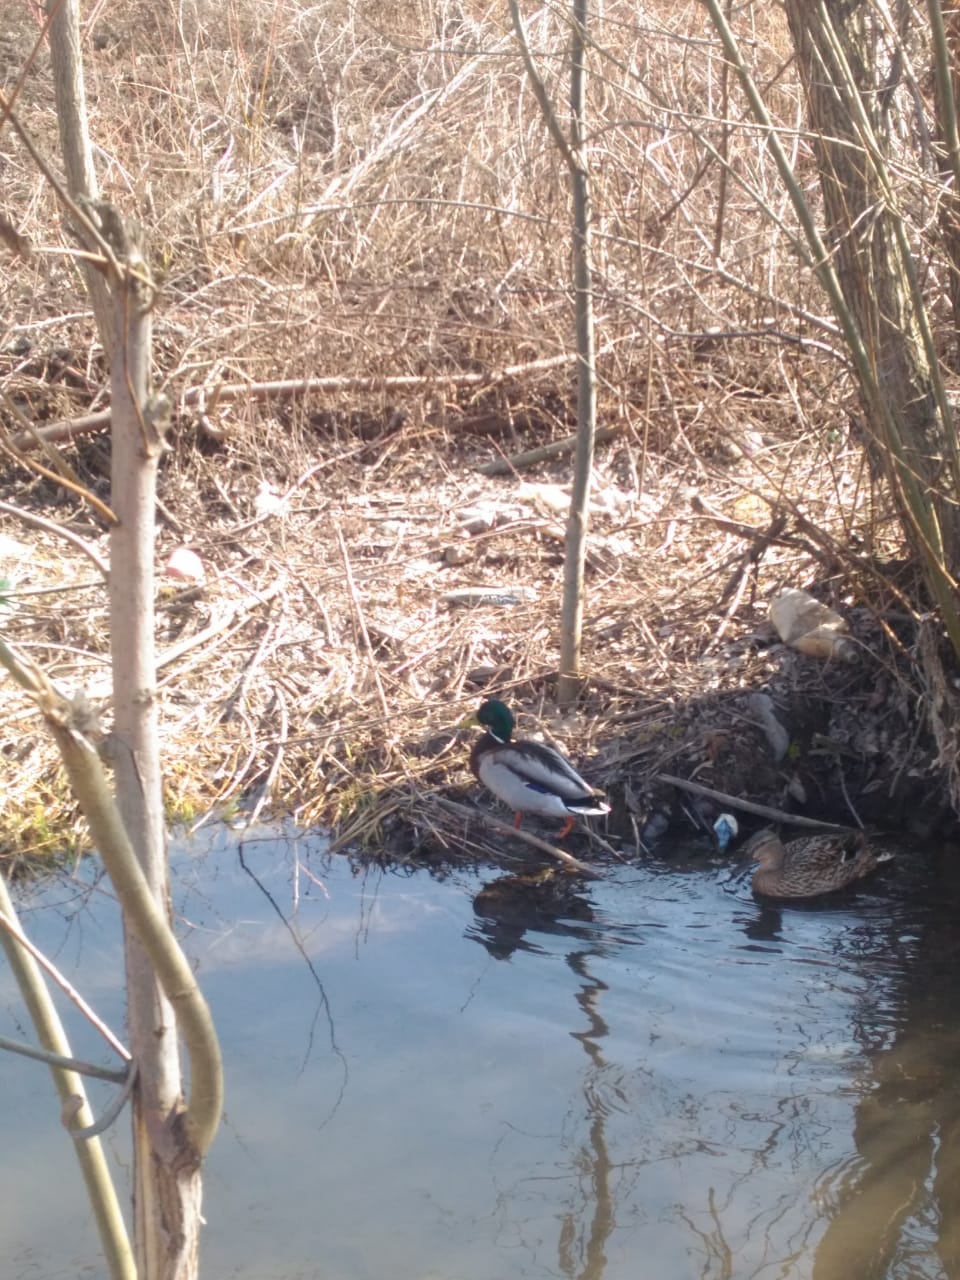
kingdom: Animalia
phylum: Chordata
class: Aves
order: Anseriformes
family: Anatidae
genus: Anas
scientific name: Anas platyrhynchos
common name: Mallard
